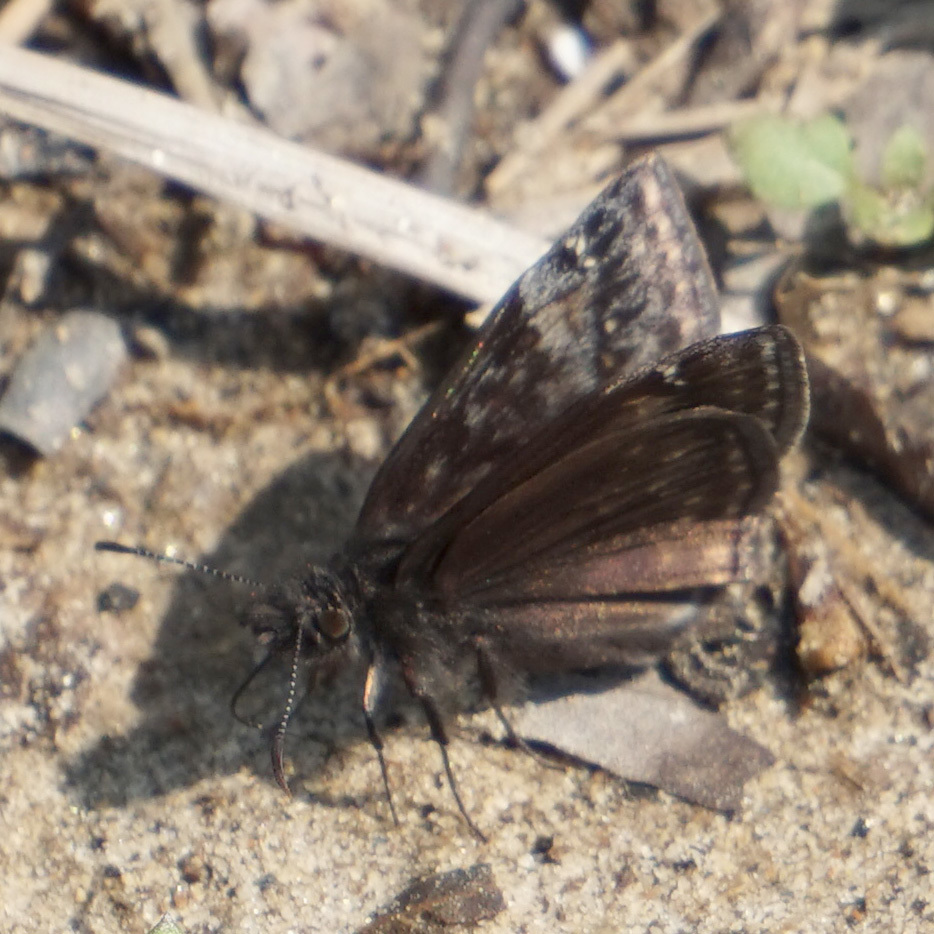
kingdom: Animalia
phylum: Arthropoda
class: Insecta
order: Lepidoptera
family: Hesperiidae
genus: Erynnis
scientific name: Erynnis baptisiae
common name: Wild indigo duskywing
